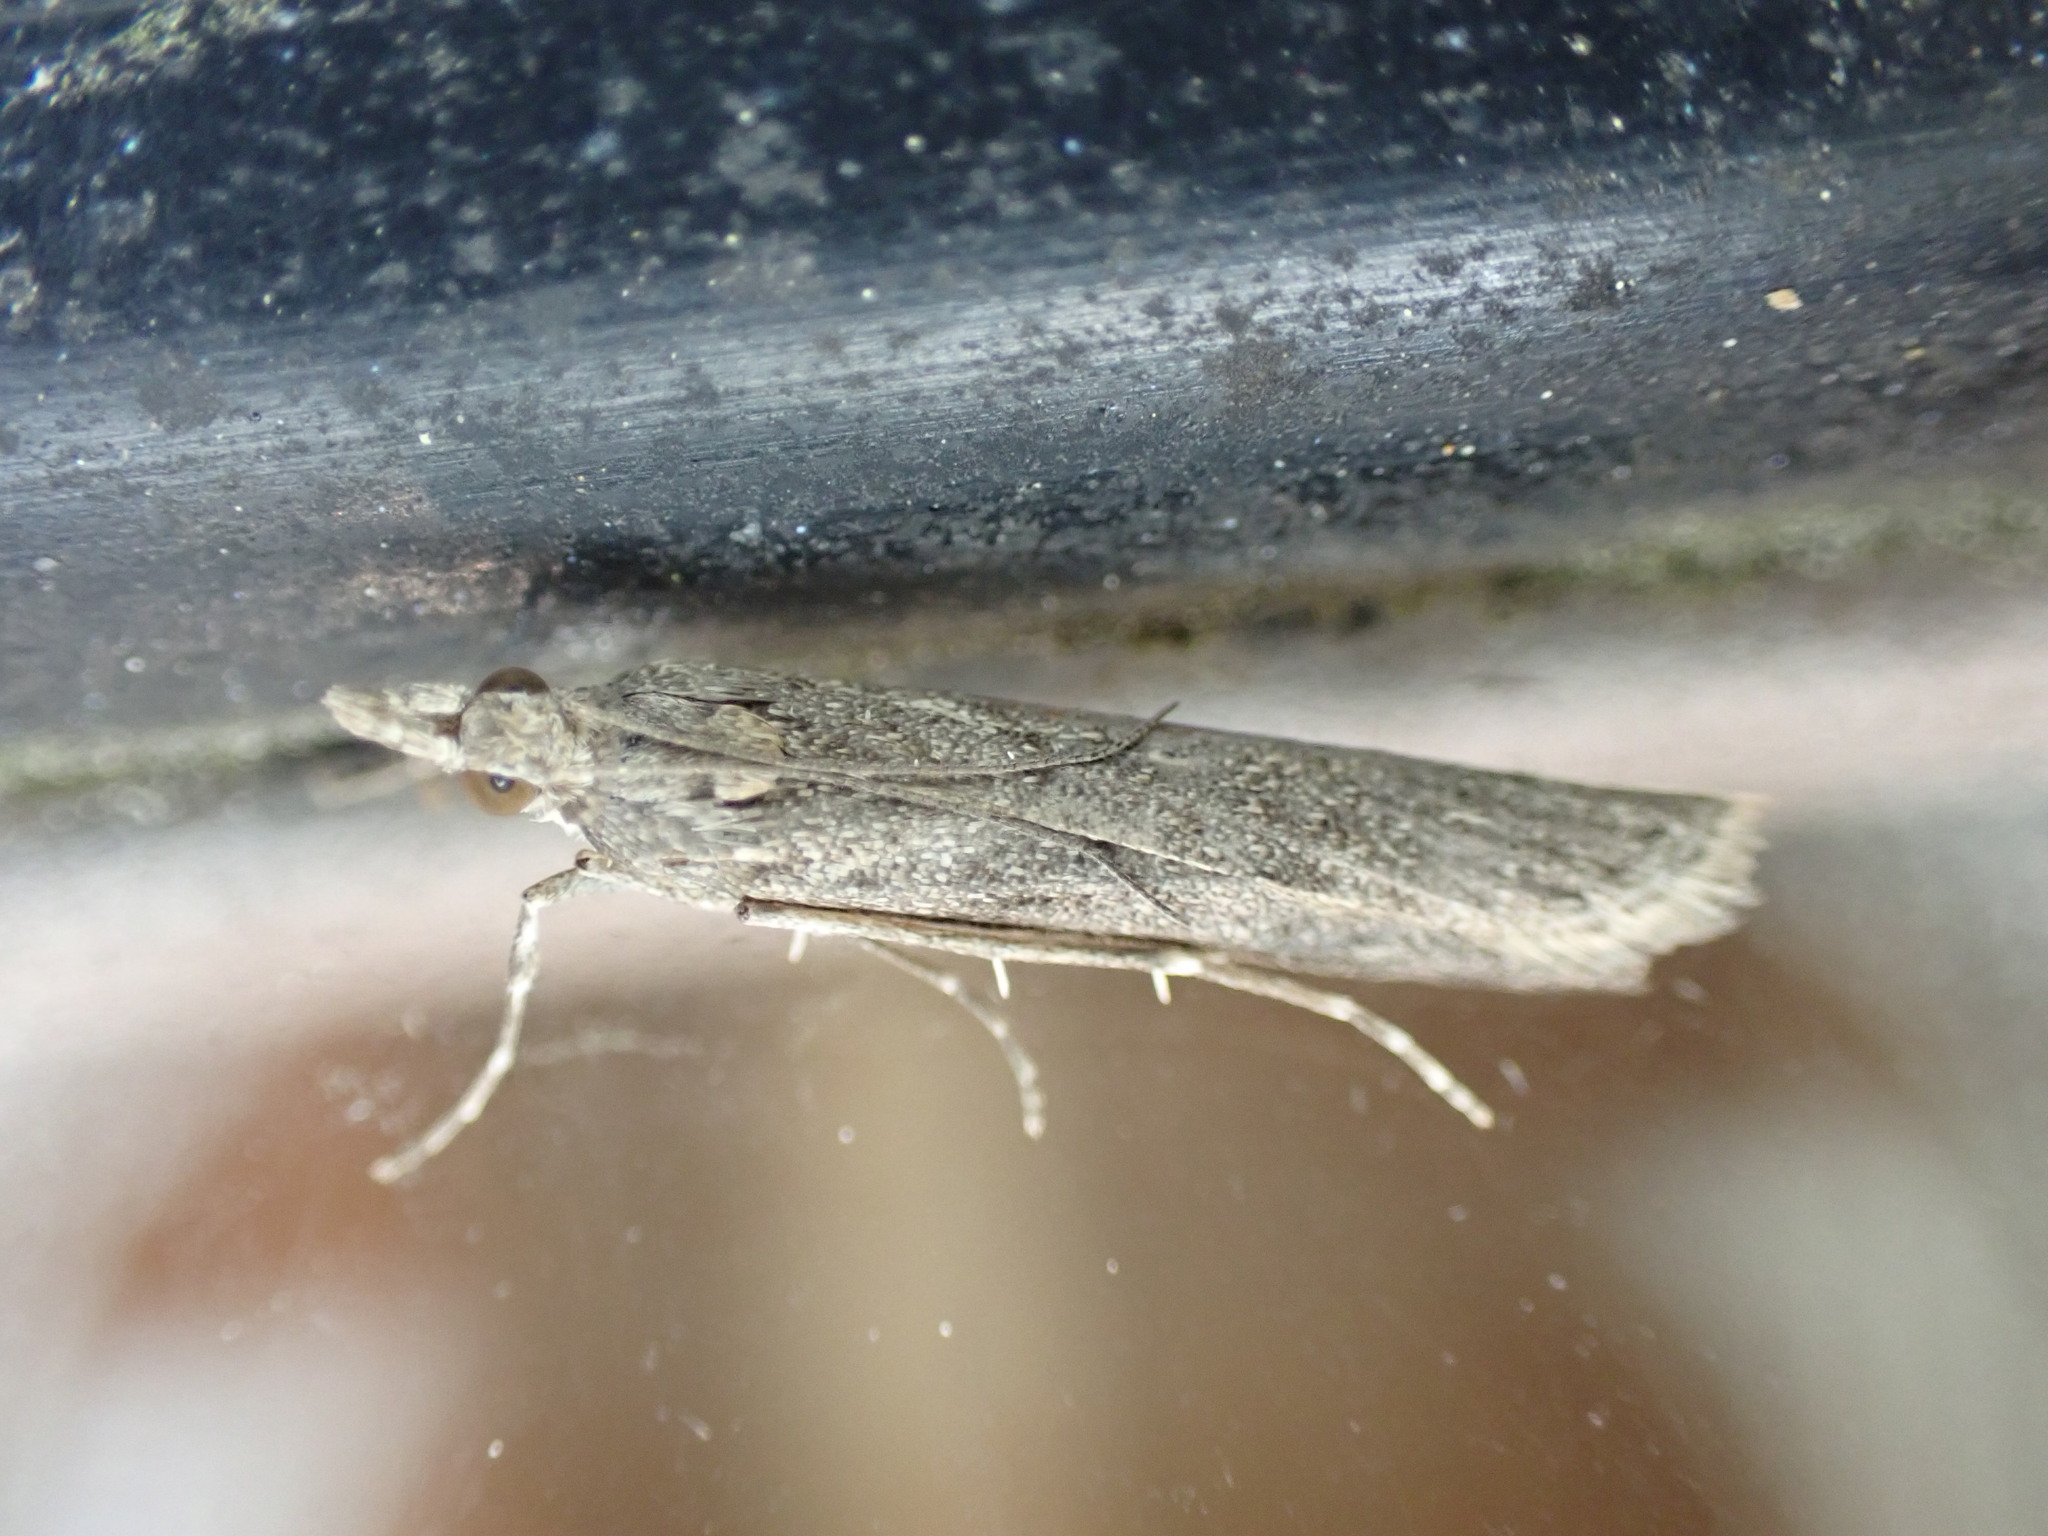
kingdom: Animalia
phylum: Arthropoda
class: Insecta
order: Lepidoptera
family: Crambidae
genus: Eudonia
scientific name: Eudonia leptalea
